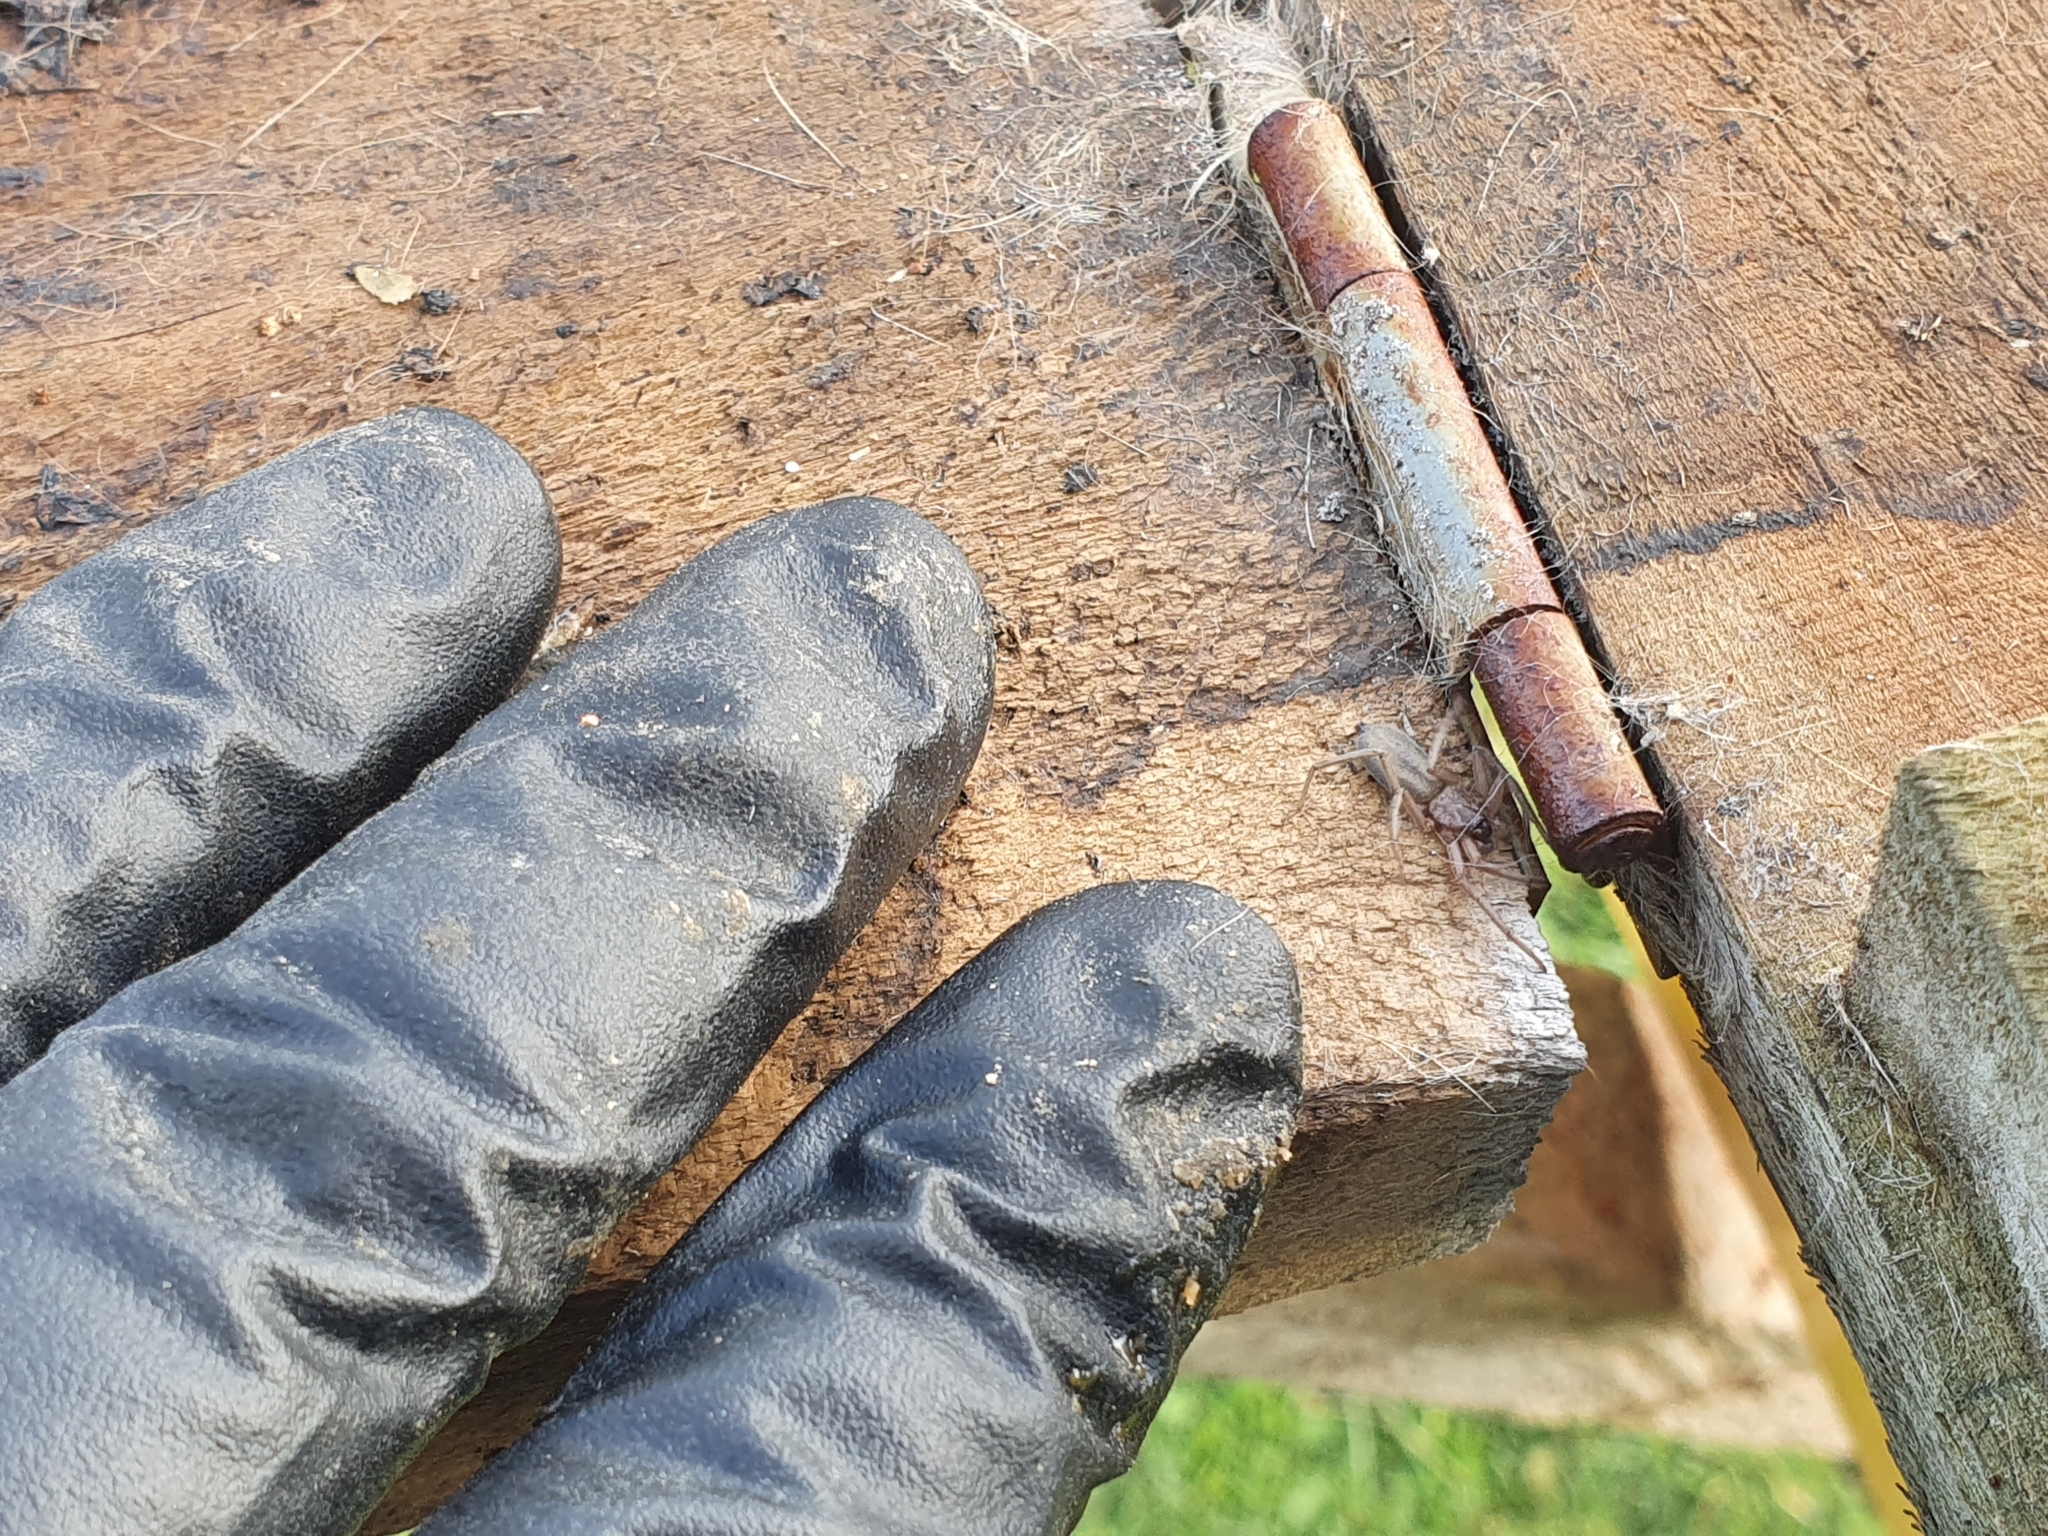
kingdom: Animalia
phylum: Arthropoda
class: Arachnida
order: Araneae
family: Trochanteriidae
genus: Hemicloea
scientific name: Hemicloea rogenhoferi
